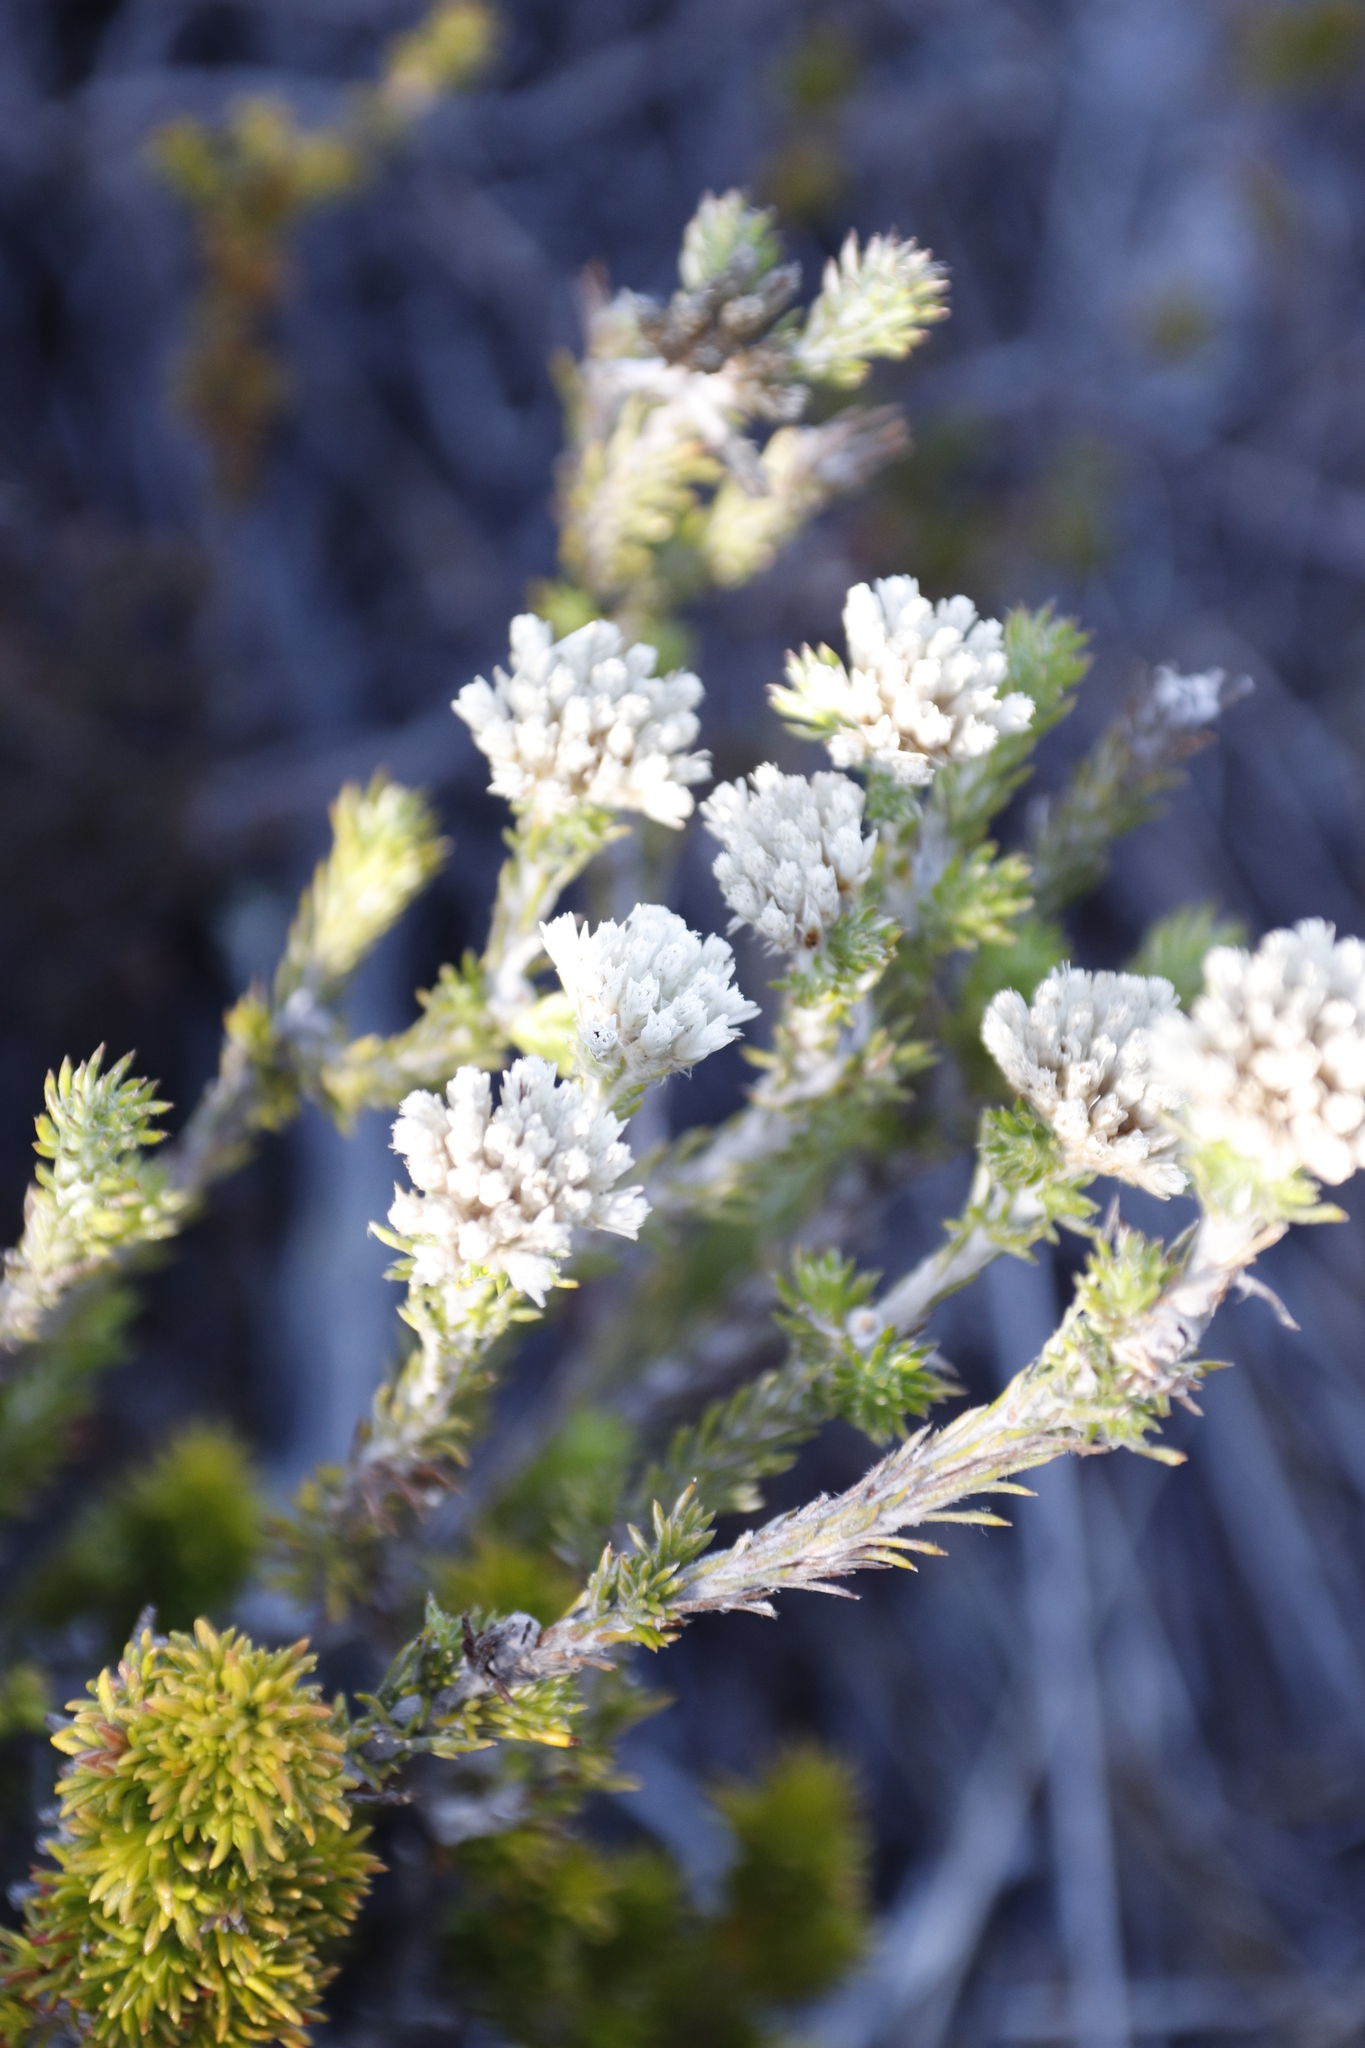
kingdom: Plantae
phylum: Tracheophyta
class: Magnoliopsida
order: Asterales
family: Asteraceae
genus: Metalasia
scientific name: Metalasia compacta
